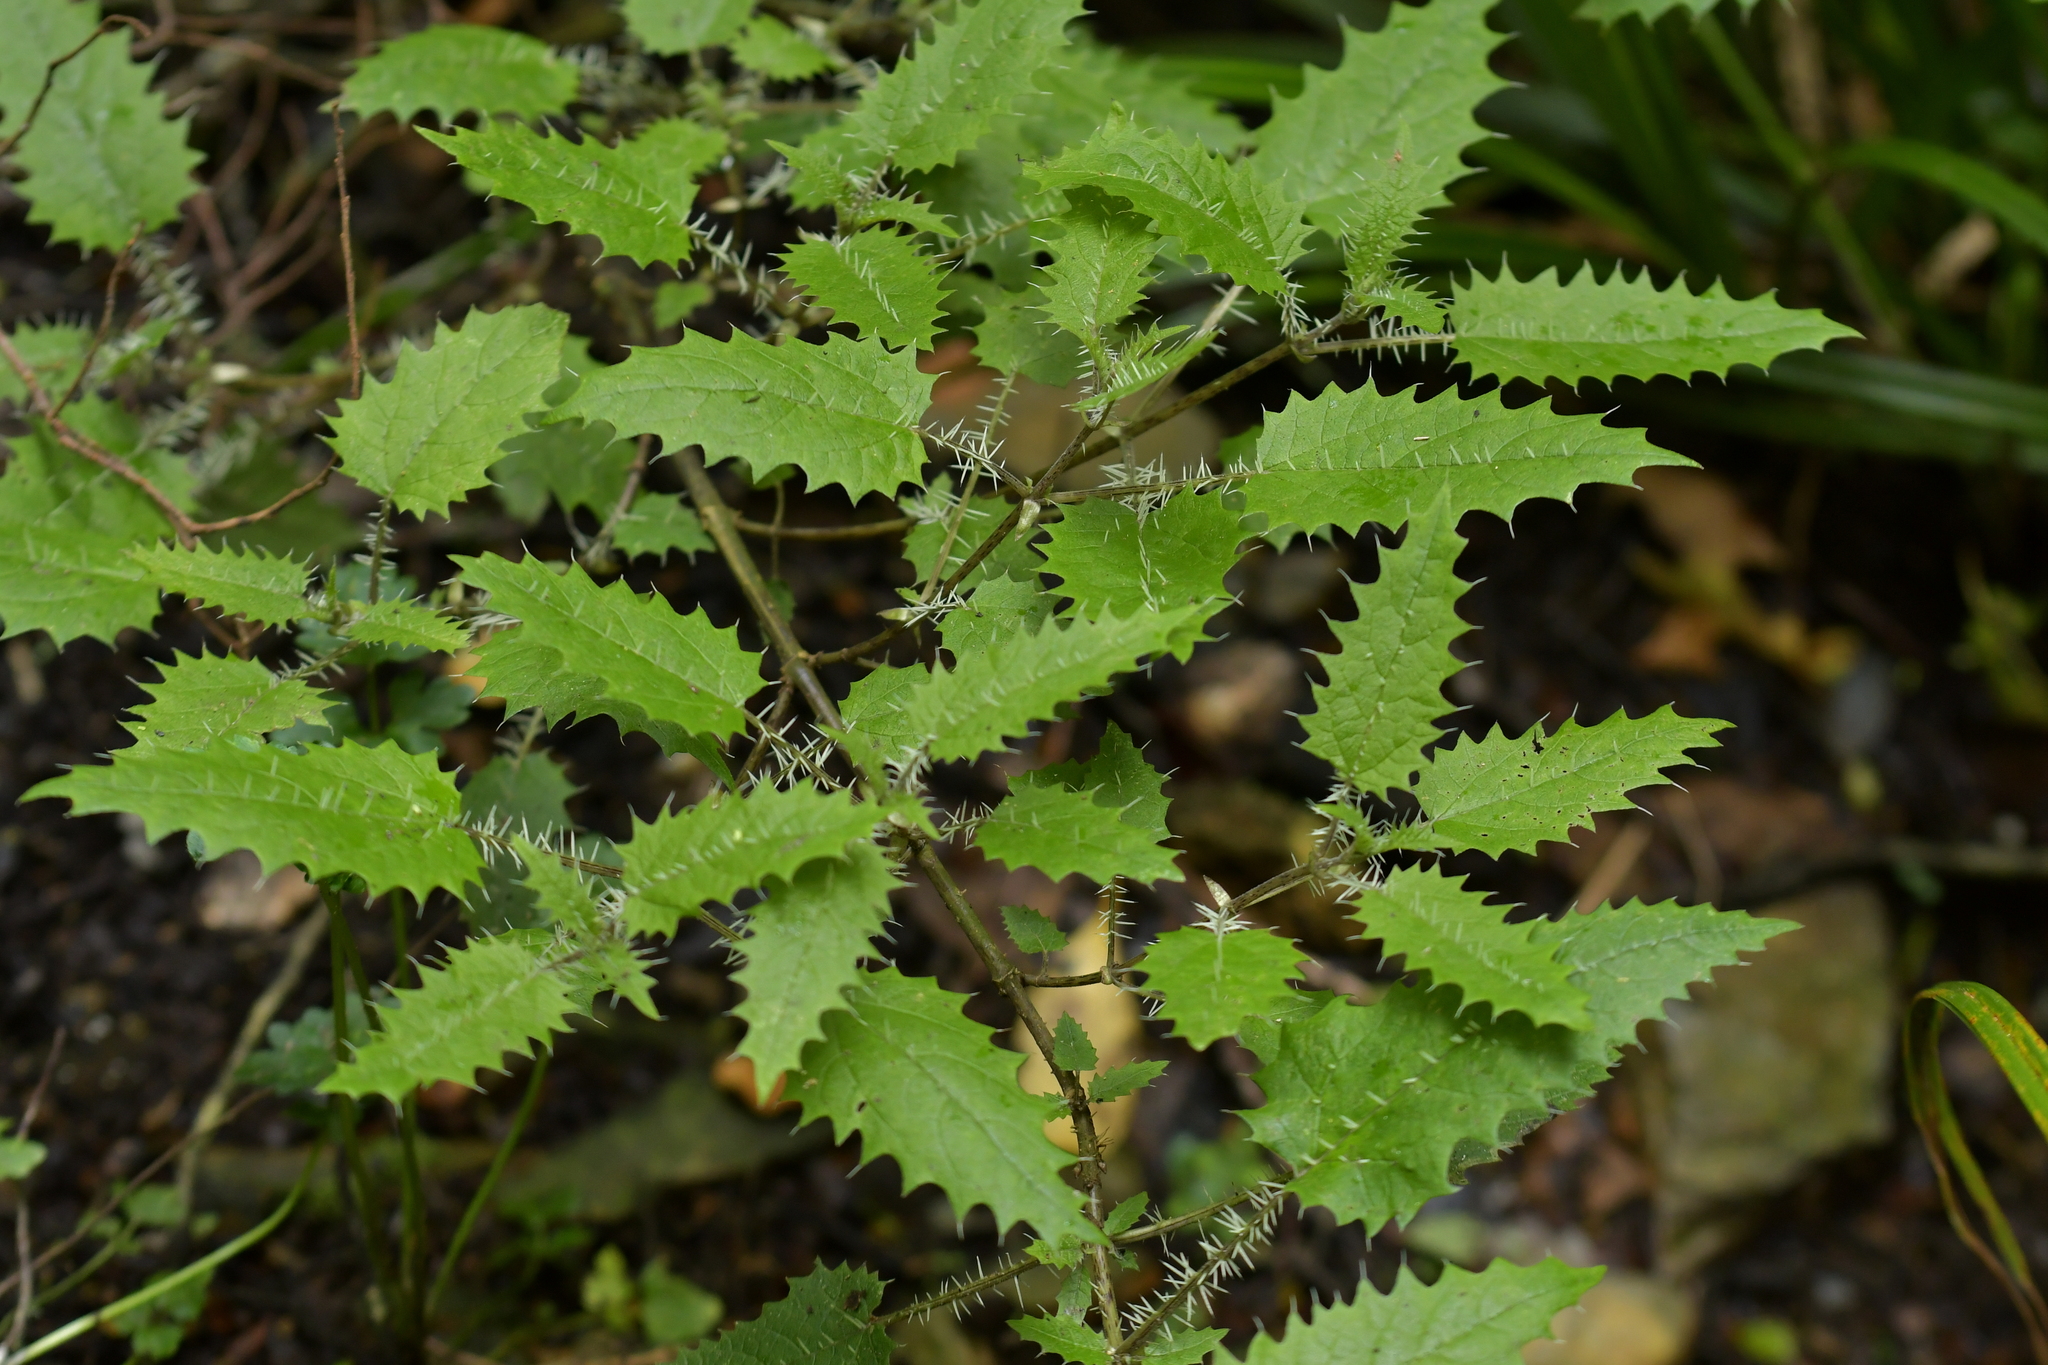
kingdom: Plantae
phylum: Tracheophyta
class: Magnoliopsida
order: Rosales
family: Urticaceae
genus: Urtica
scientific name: Urtica ferox
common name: Tree nettle
